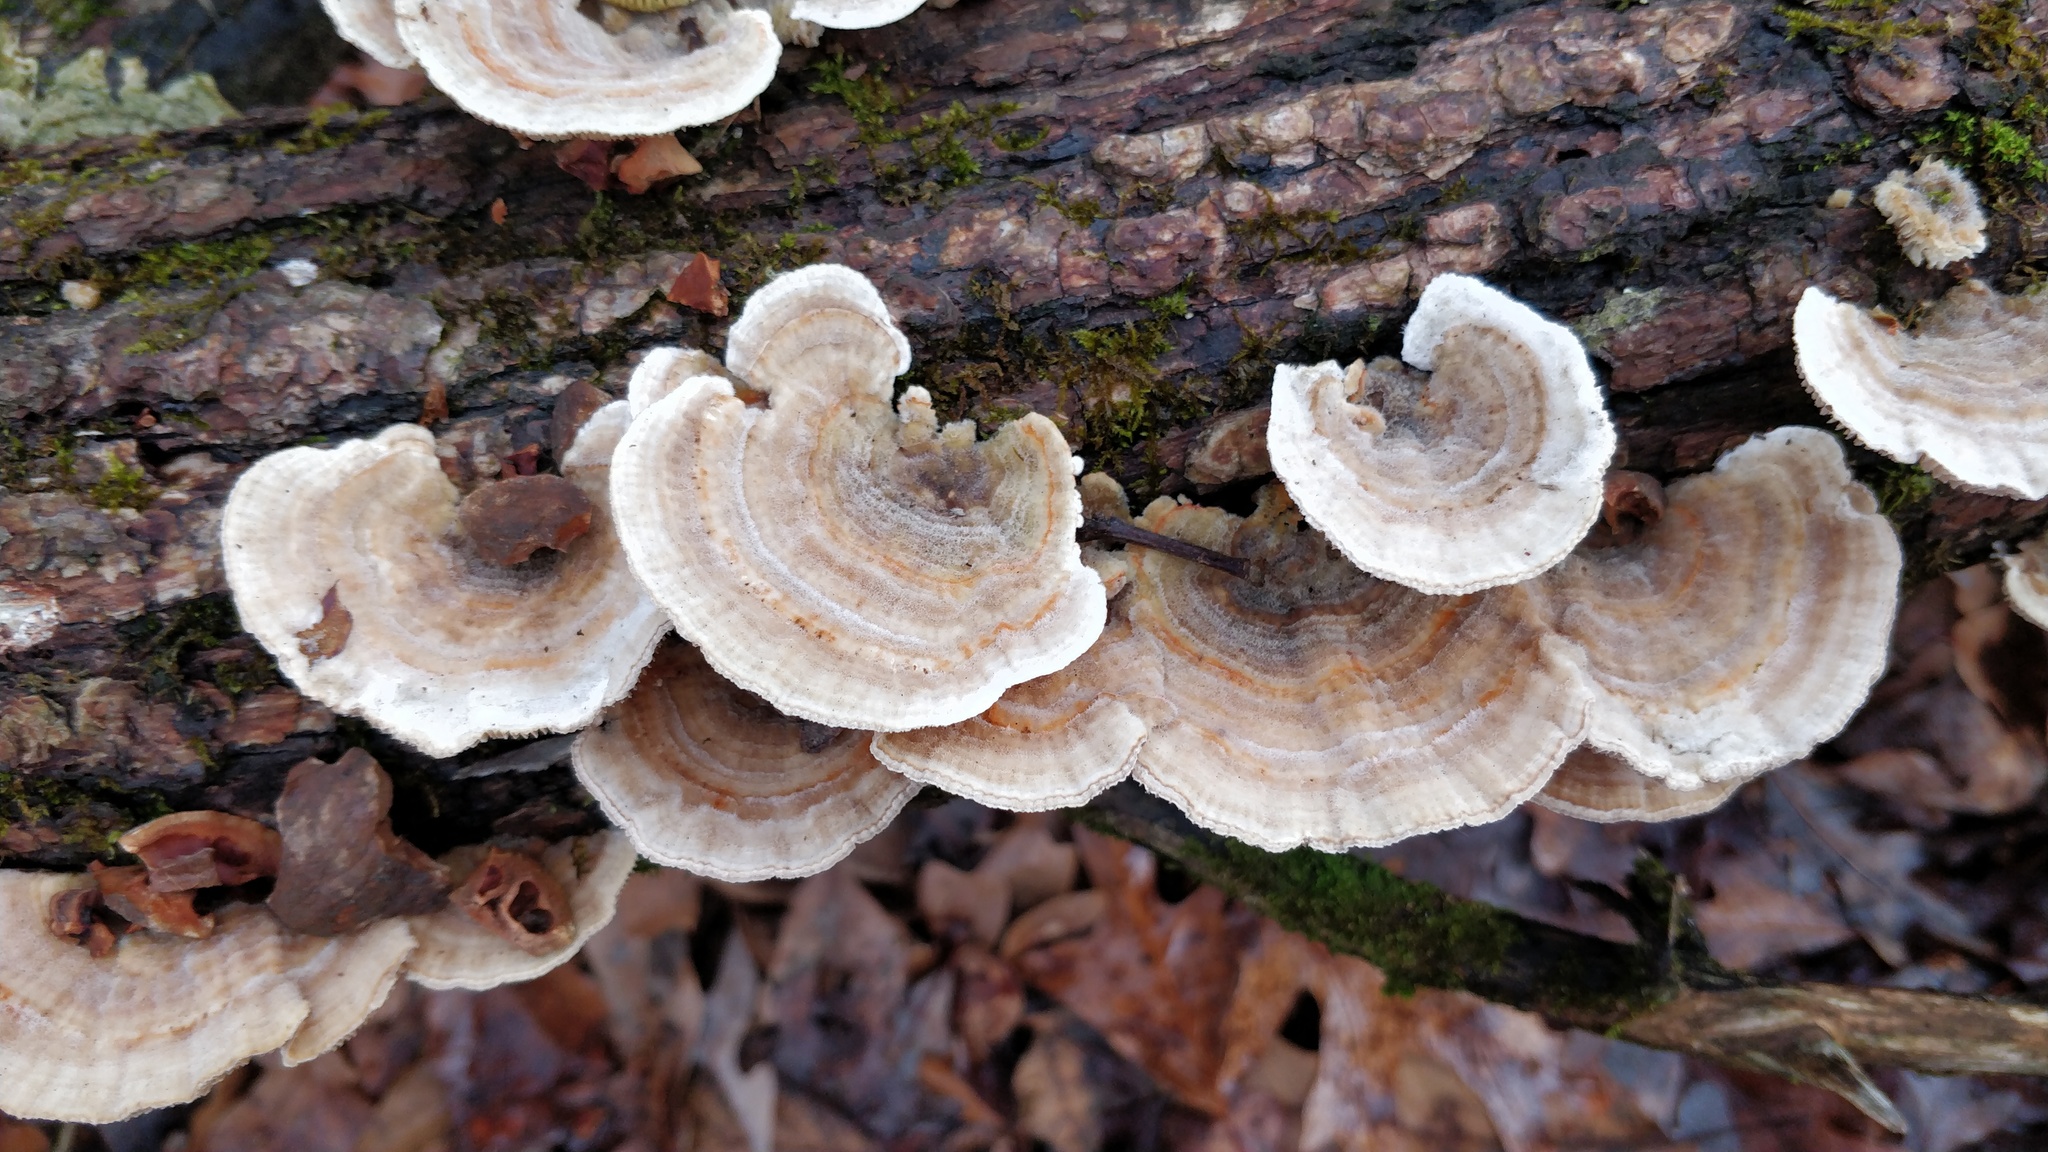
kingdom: Fungi
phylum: Basidiomycota
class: Agaricomycetes
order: Polyporales
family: Polyporaceae
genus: Lenzites
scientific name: Lenzites betulinus
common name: Birch mazegill
